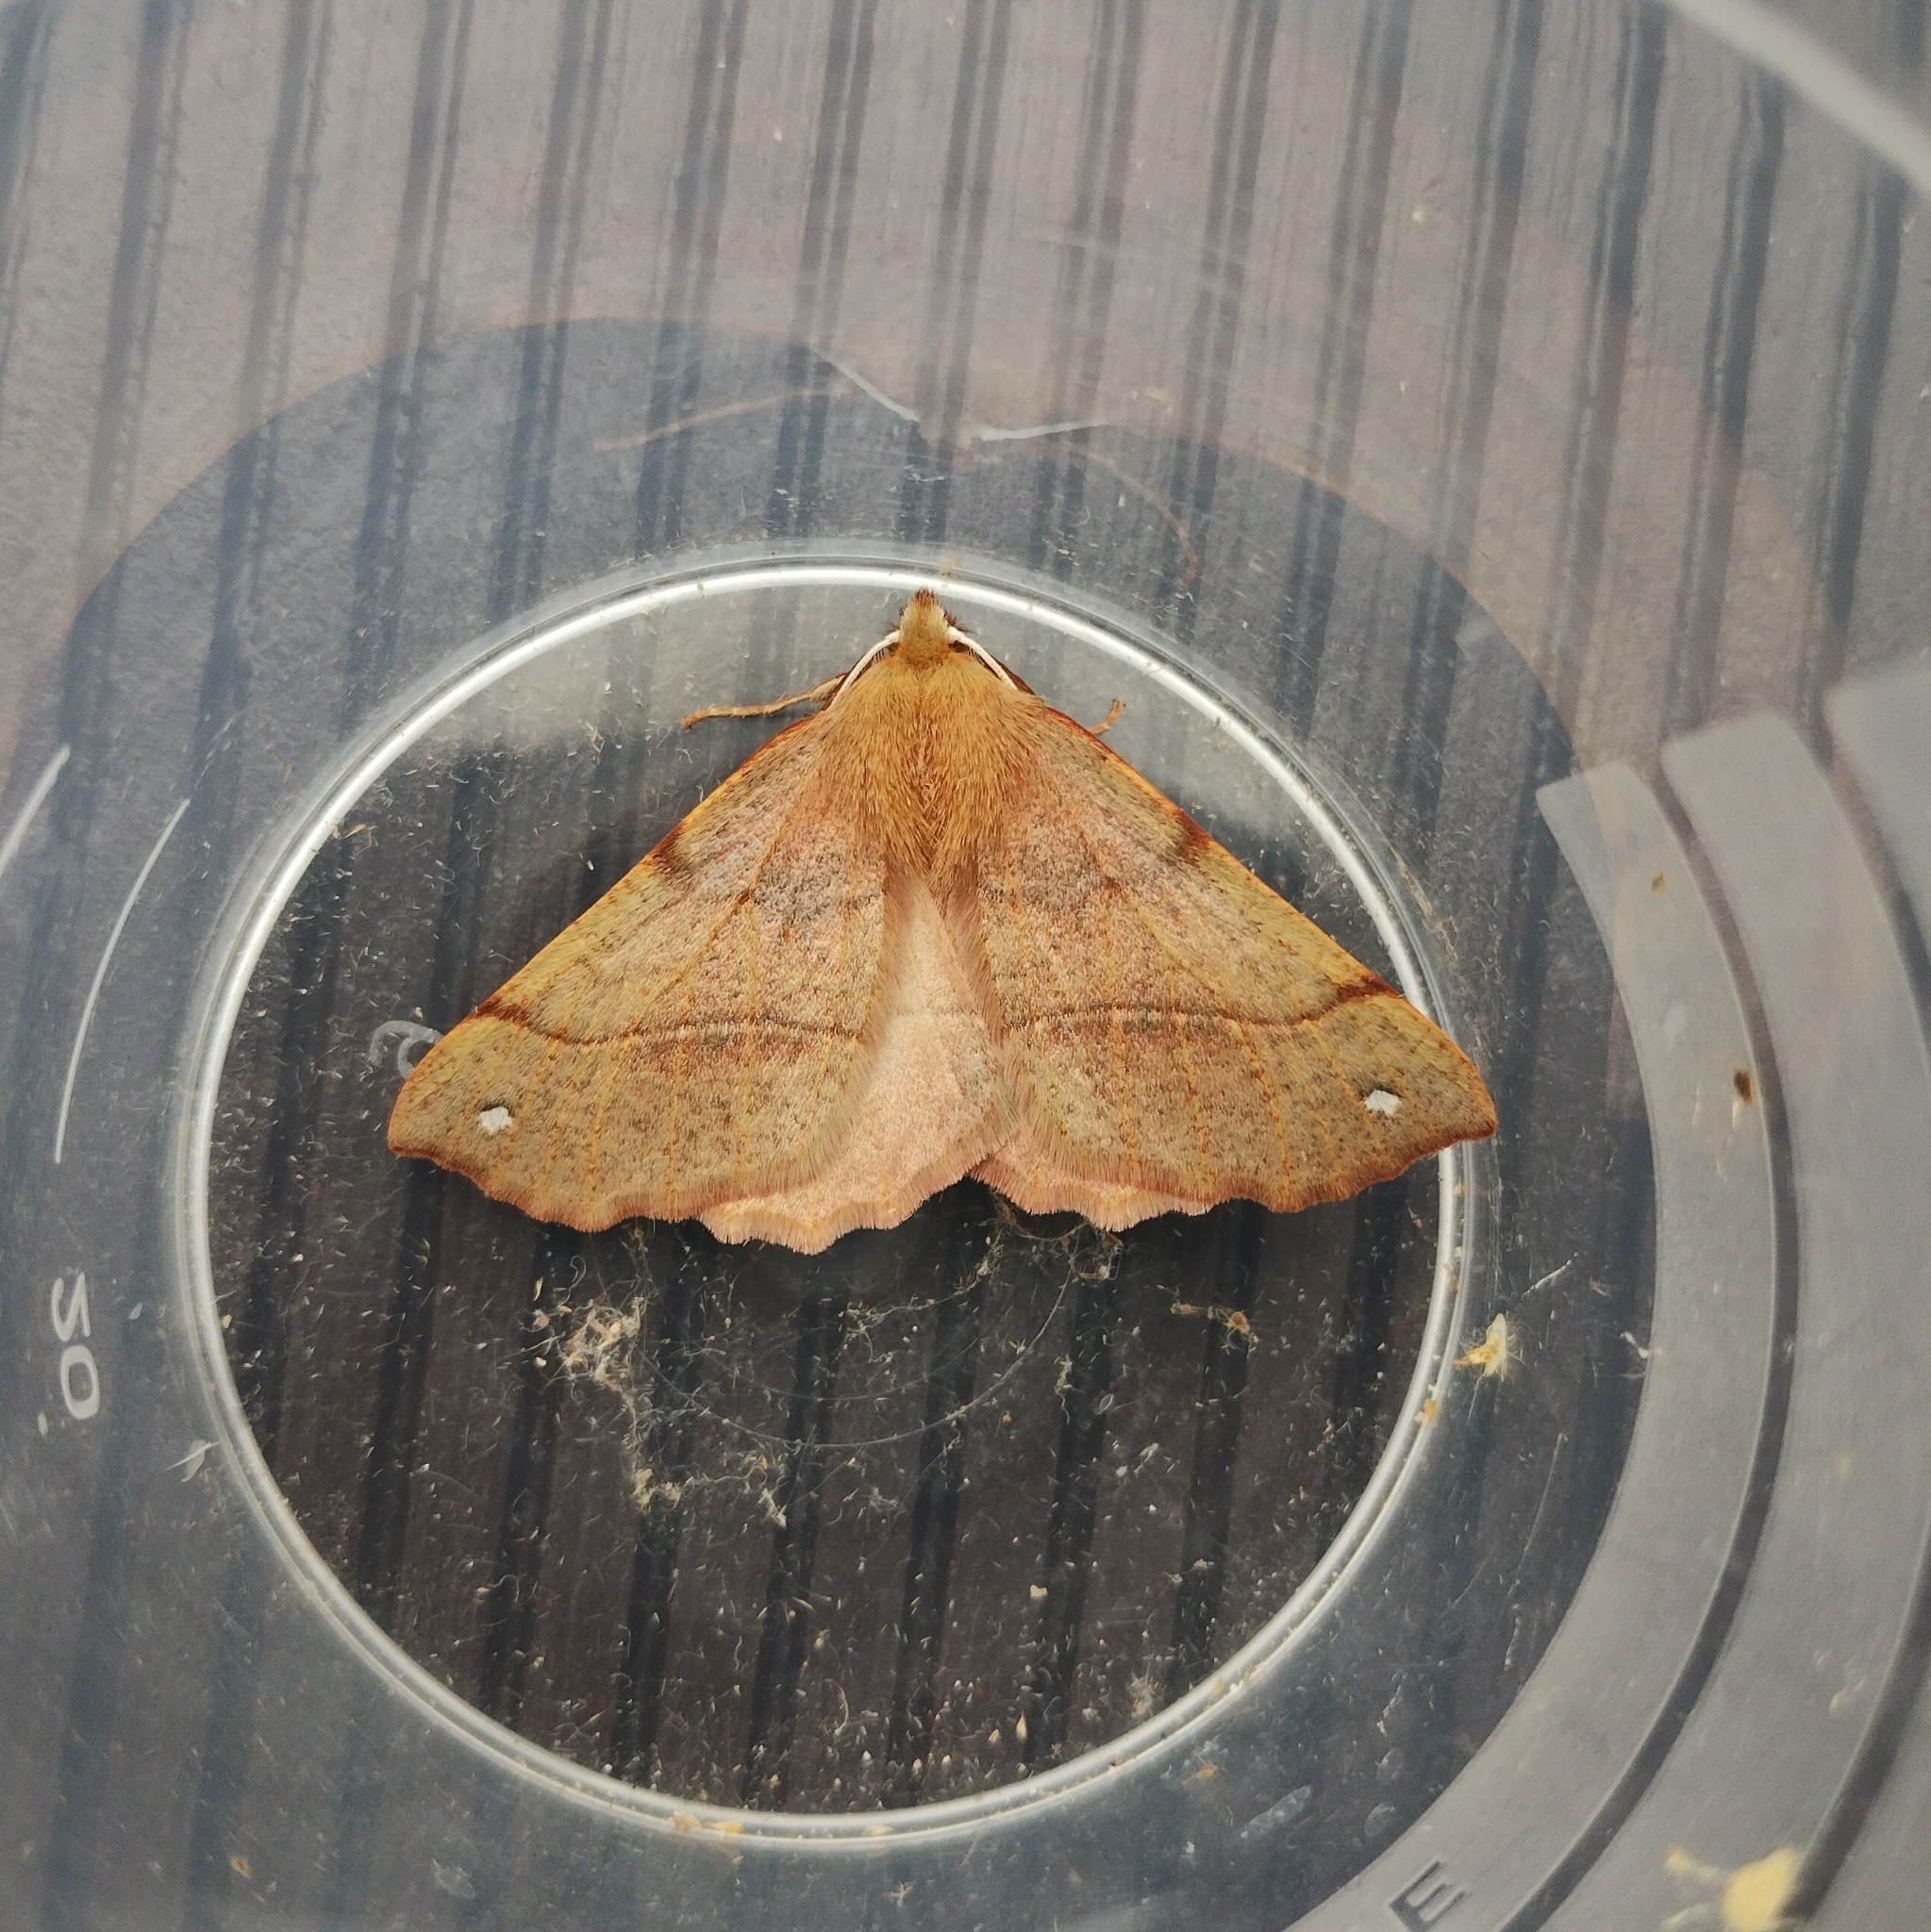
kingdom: Animalia
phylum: Arthropoda
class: Insecta
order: Lepidoptera
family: Geometridae
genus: Colotois
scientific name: Colotois pennaria
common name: Feathered thorn
